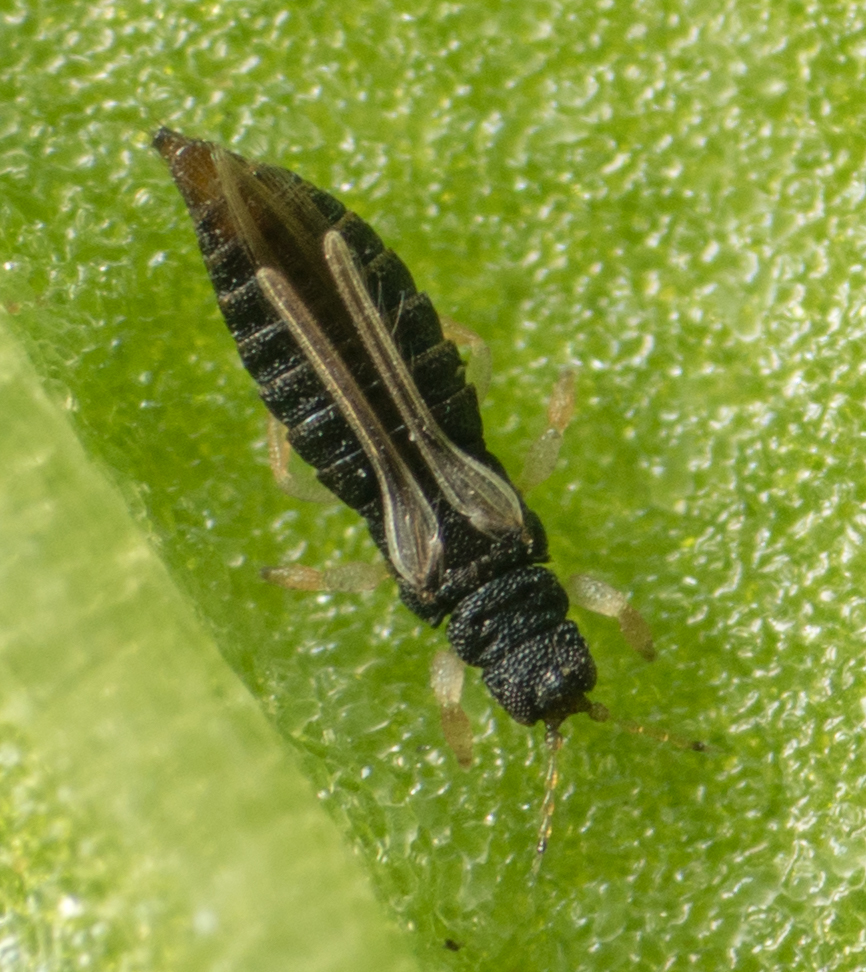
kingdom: Animalia
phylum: Arthropoda
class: Insecta
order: Thysanoptera
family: Thripidae
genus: Heliothrips
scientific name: Heliothrips haemorrhoidalis
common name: Thrips
